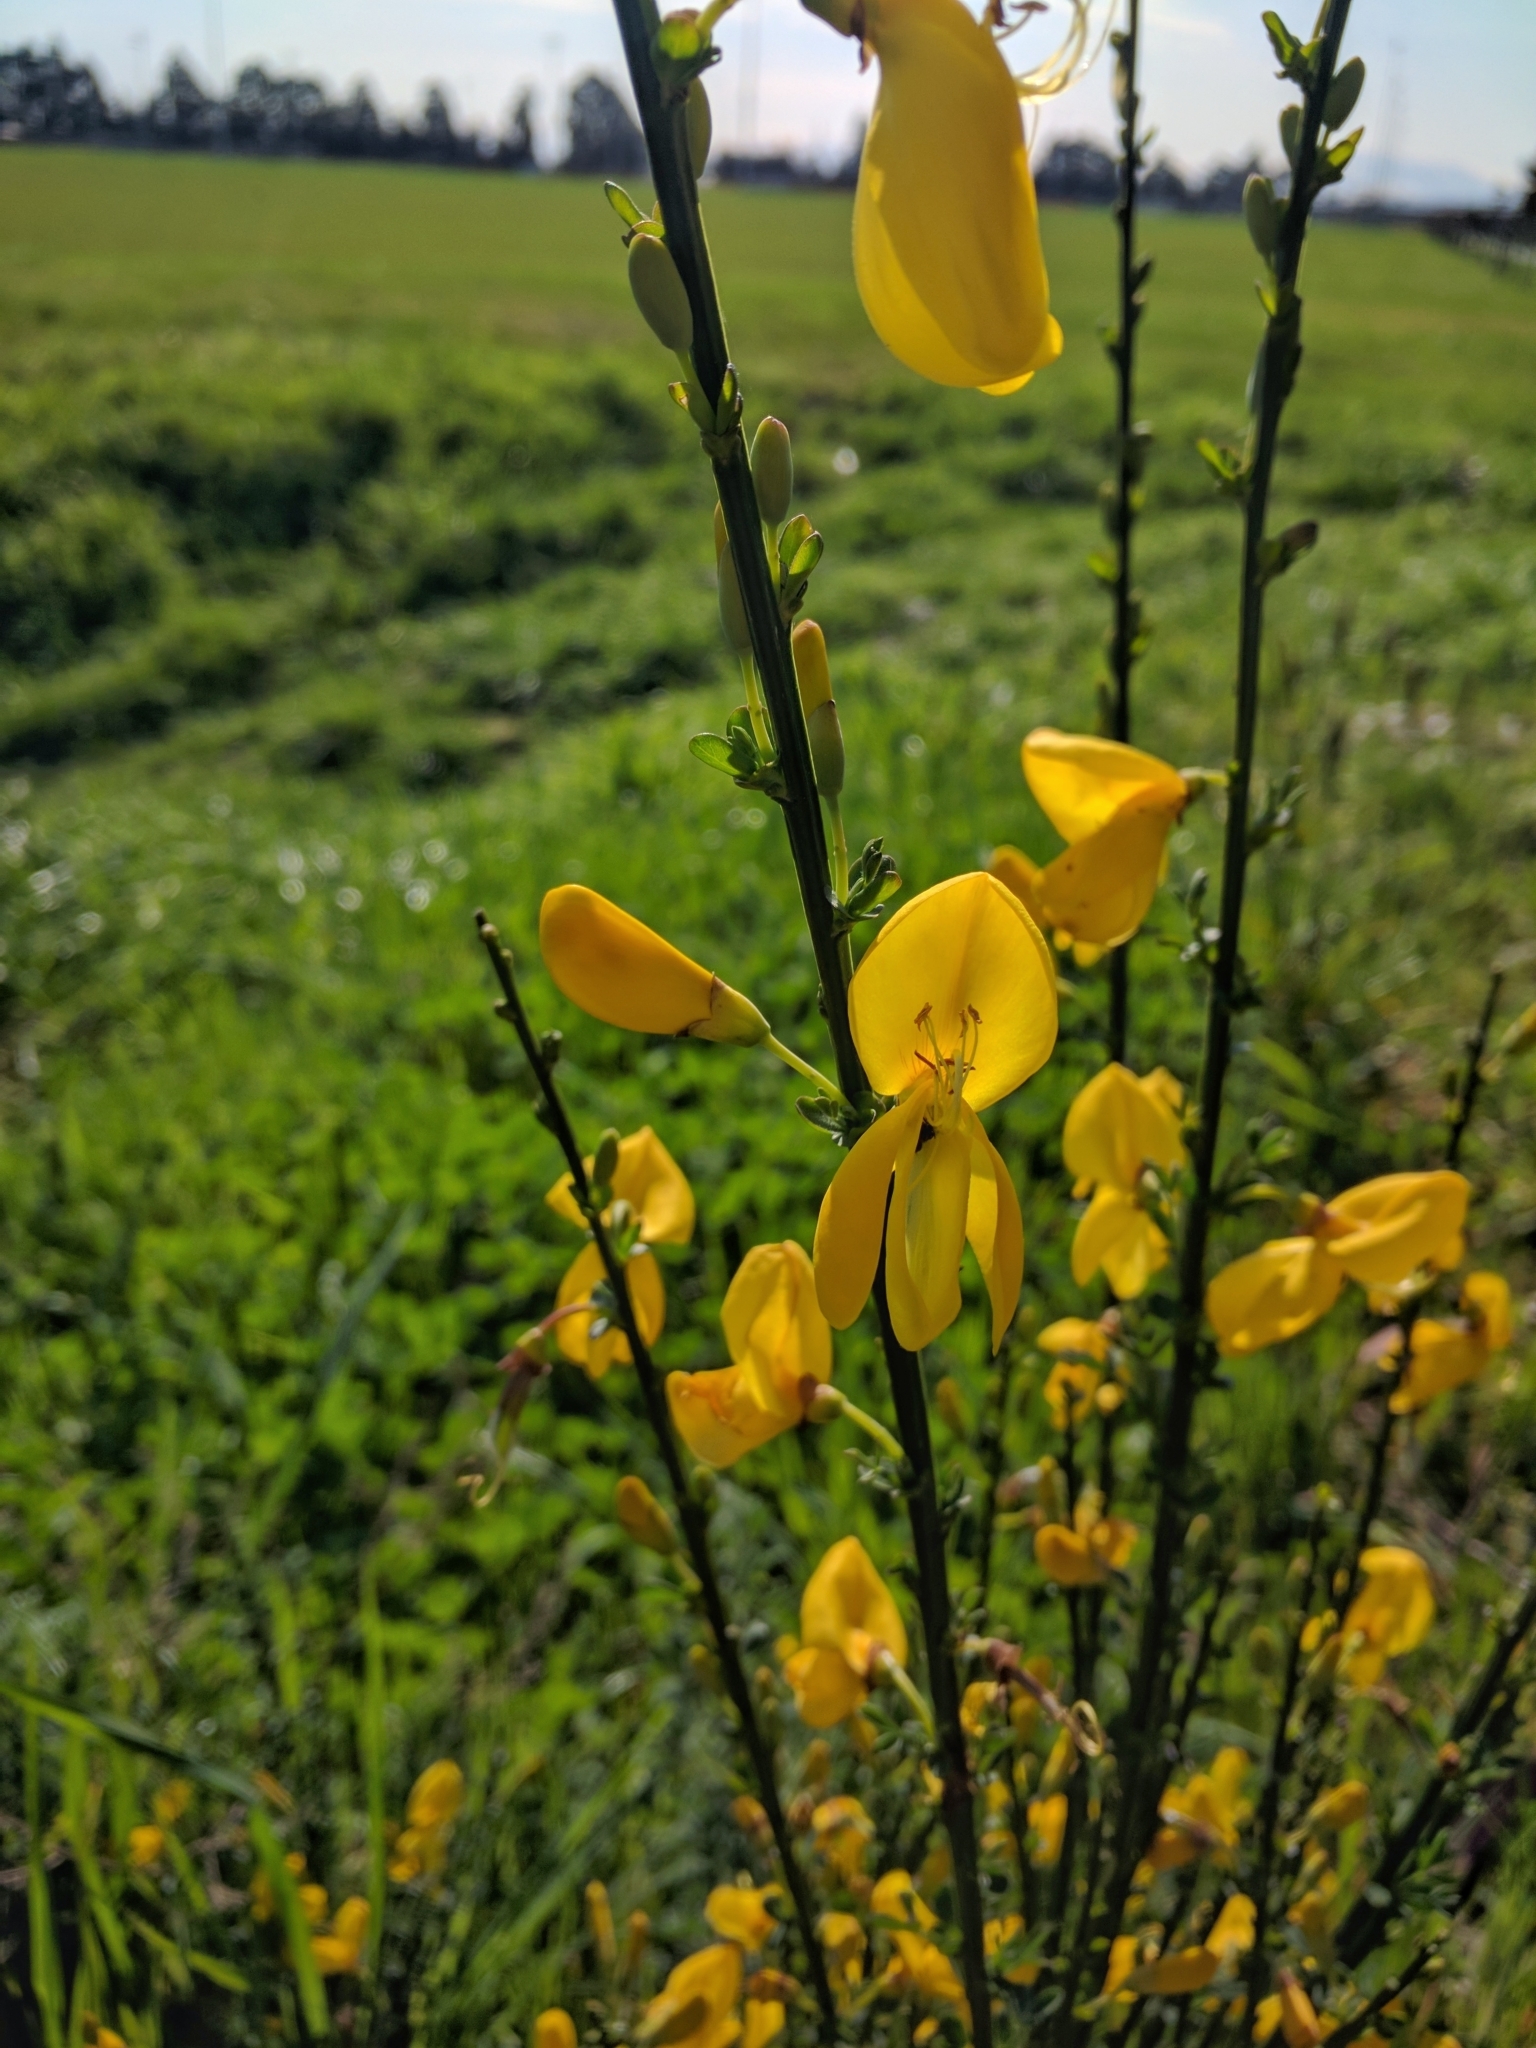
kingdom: Plantae
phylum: Tracheophyta
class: Magnoliopsida
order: Fabales
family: Fabaceae
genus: Cytisus
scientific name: Cytisus scoparius
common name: Scotch broom
